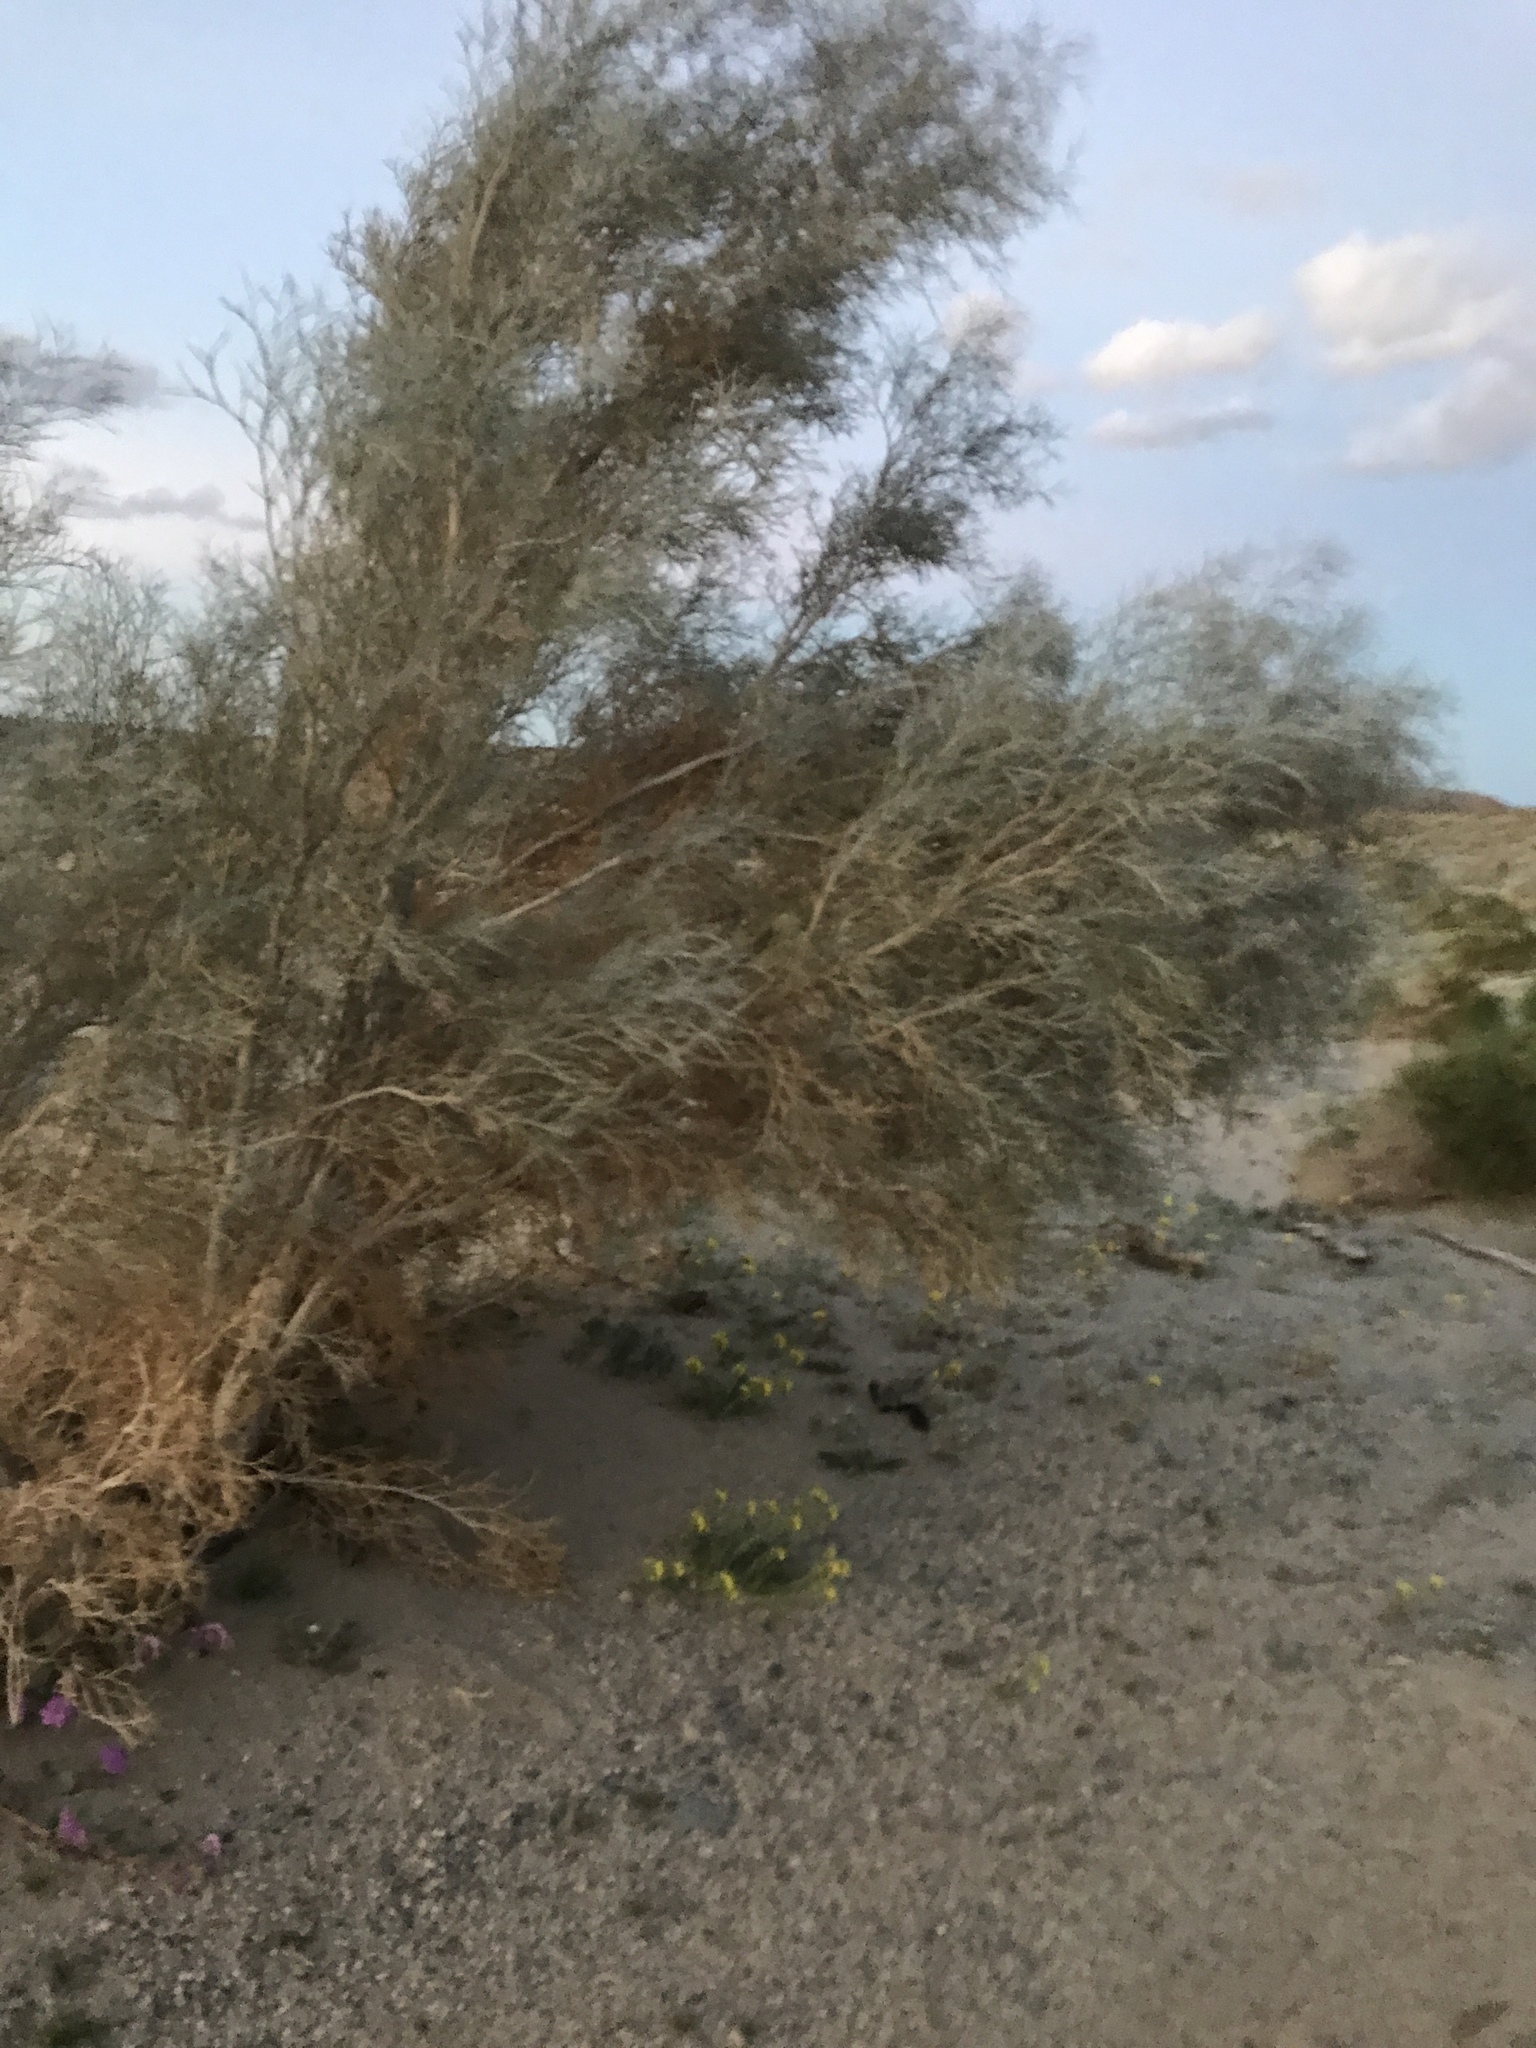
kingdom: Plantae
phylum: Tracheophyta
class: Magnoliopsida
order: Fabales
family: Fabaceae
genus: Psorothamnus
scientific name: Psorothamnus spinosus
